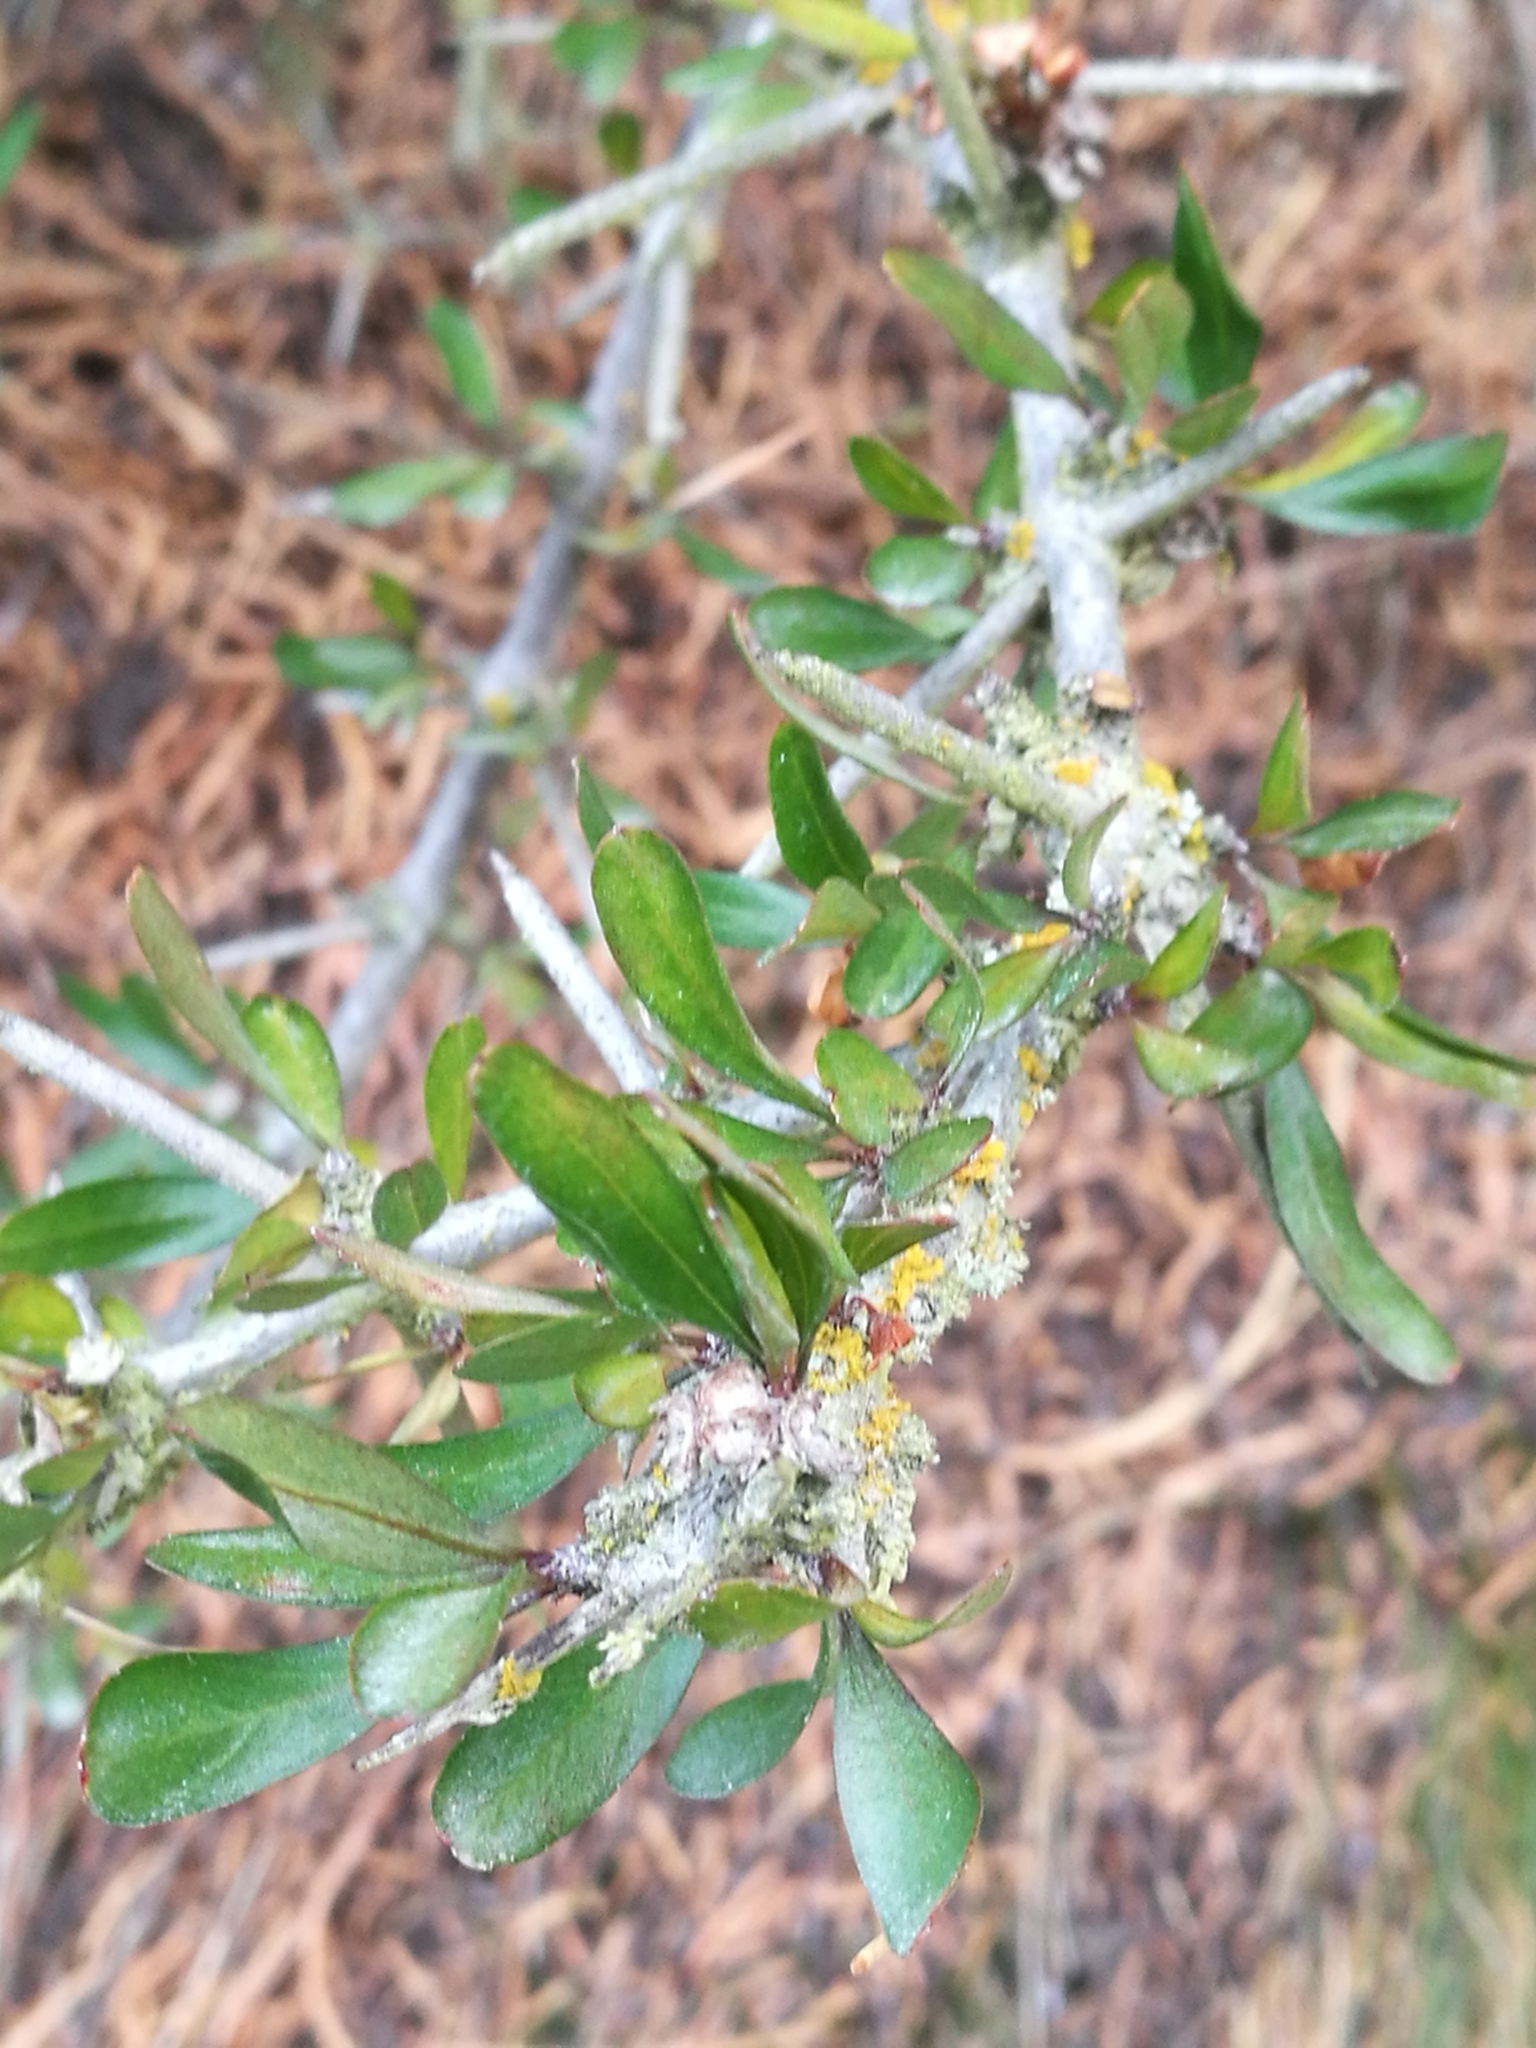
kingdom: Plantae
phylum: Tracheophyta
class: Magnoliopsida
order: Rosales
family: Rhamnaceae
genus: Discaria
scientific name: Discaria toumatou
